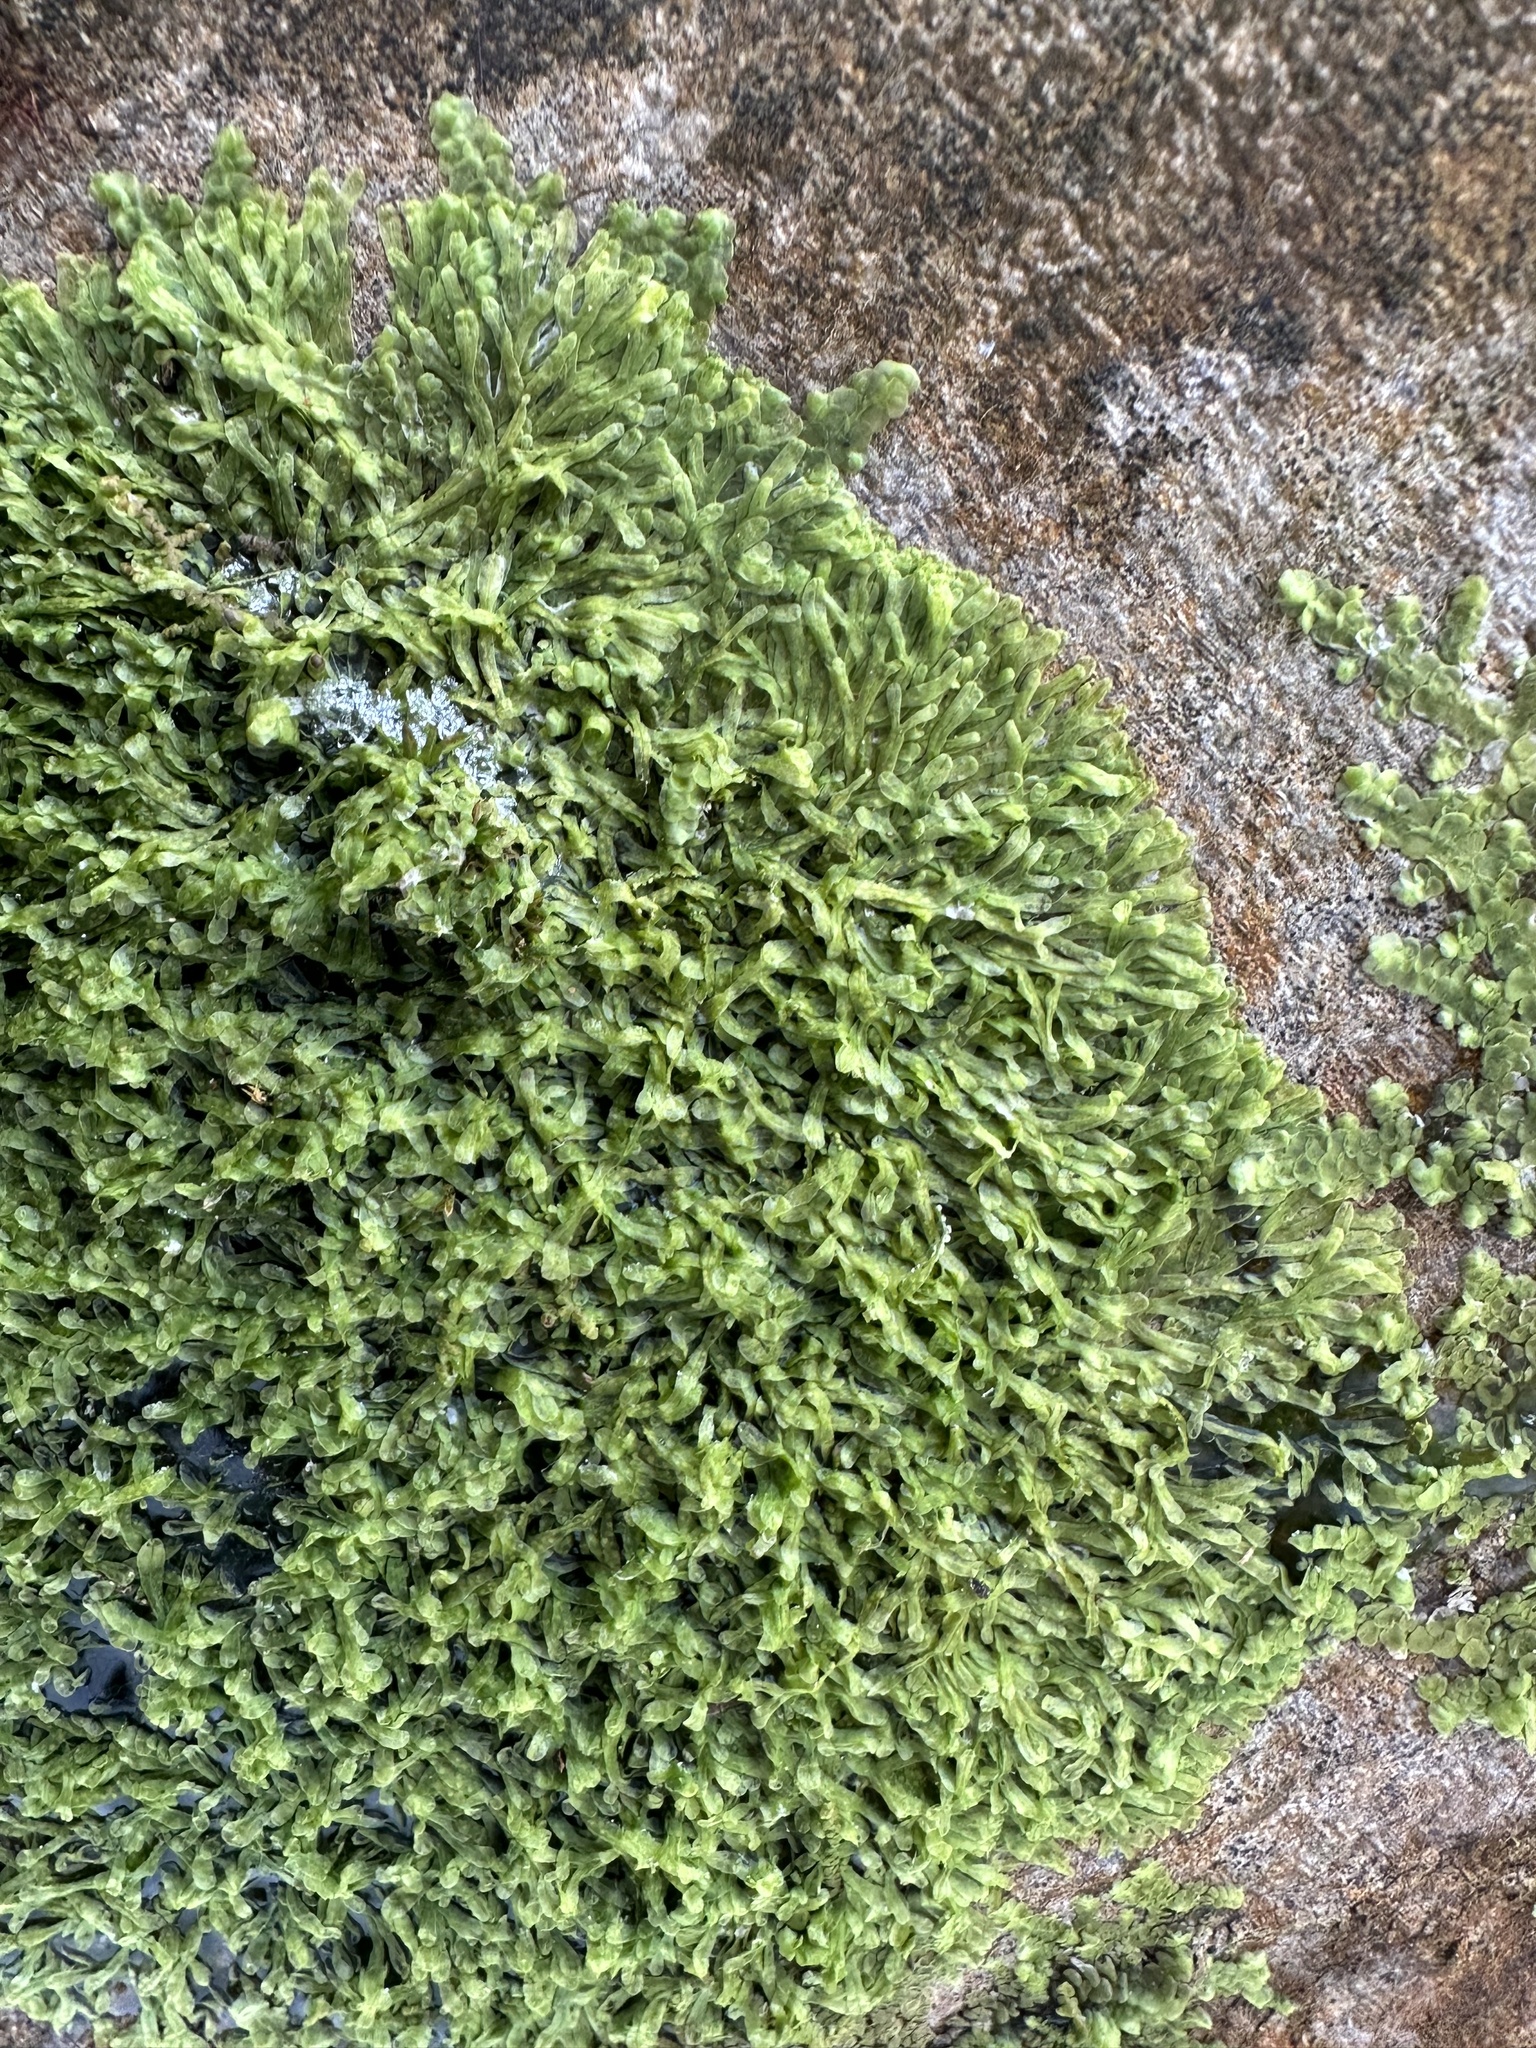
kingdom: Plantae
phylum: Marchantiophyta
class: Jungermanniopsida
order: Metzgeriales
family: Metzgeriaceae
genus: Metzgeria
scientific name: Metzgeria furcata
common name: Forked veilwort
